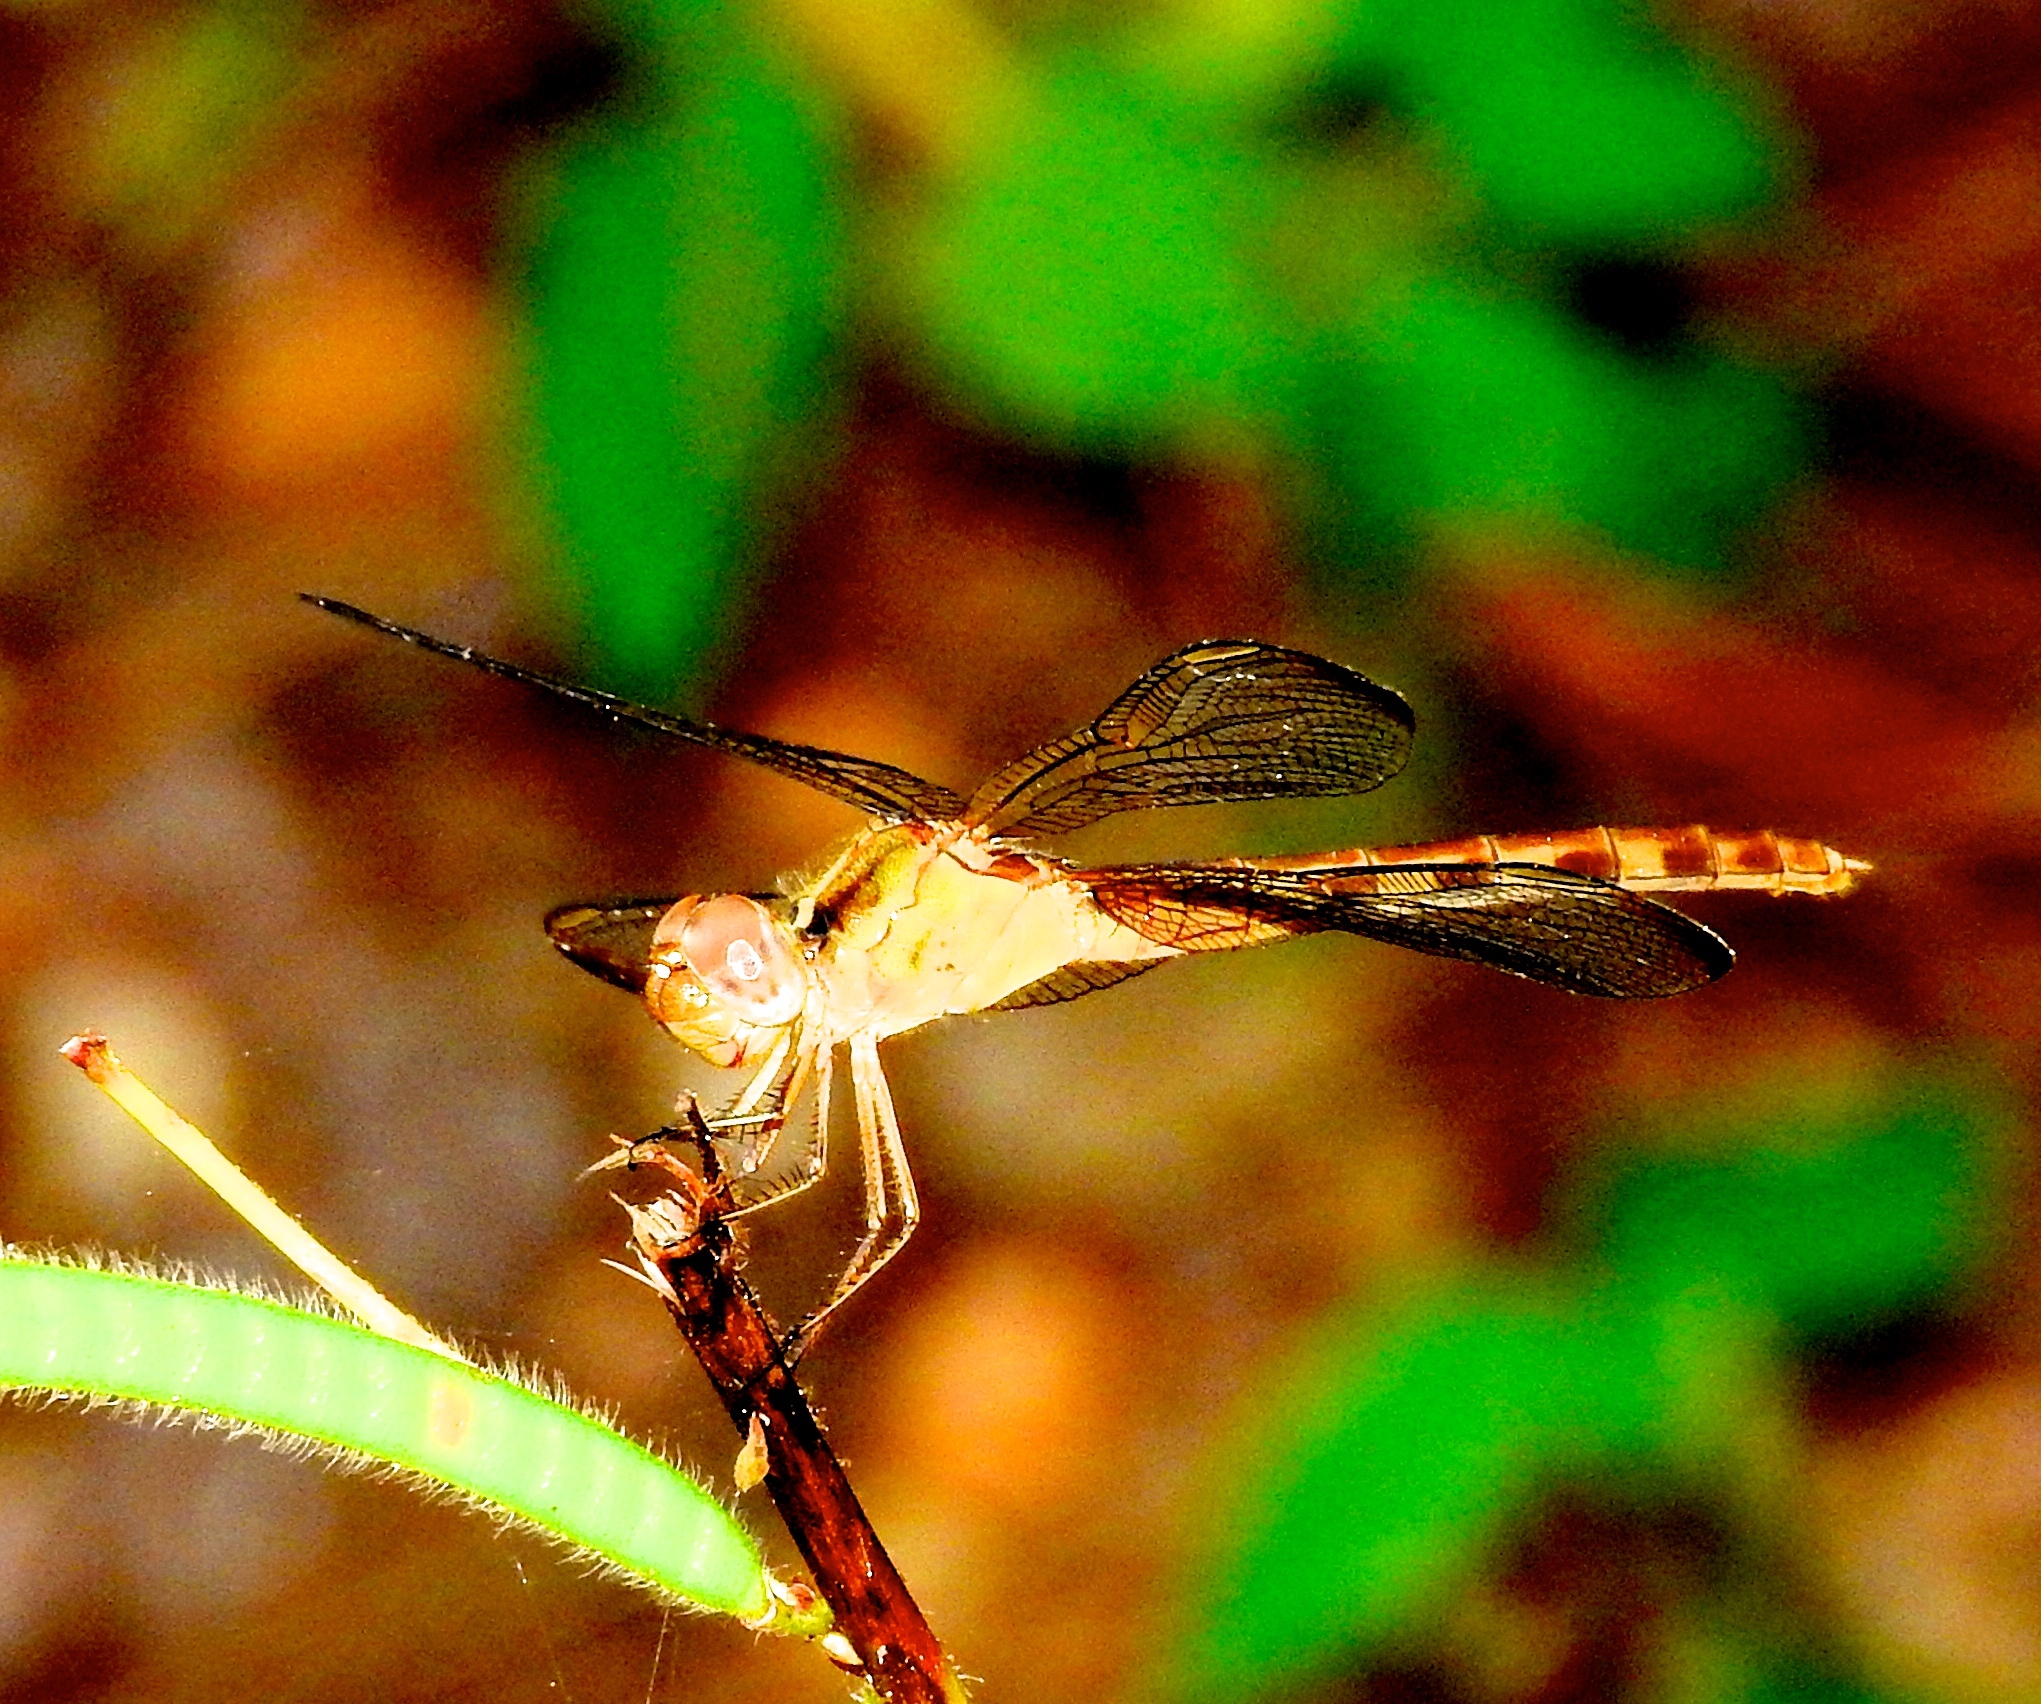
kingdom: Animalia
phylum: Arthropoda
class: Insecta
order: Odonata
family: Libellulidae
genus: Erythrodiplax
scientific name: Erythrodiplax
